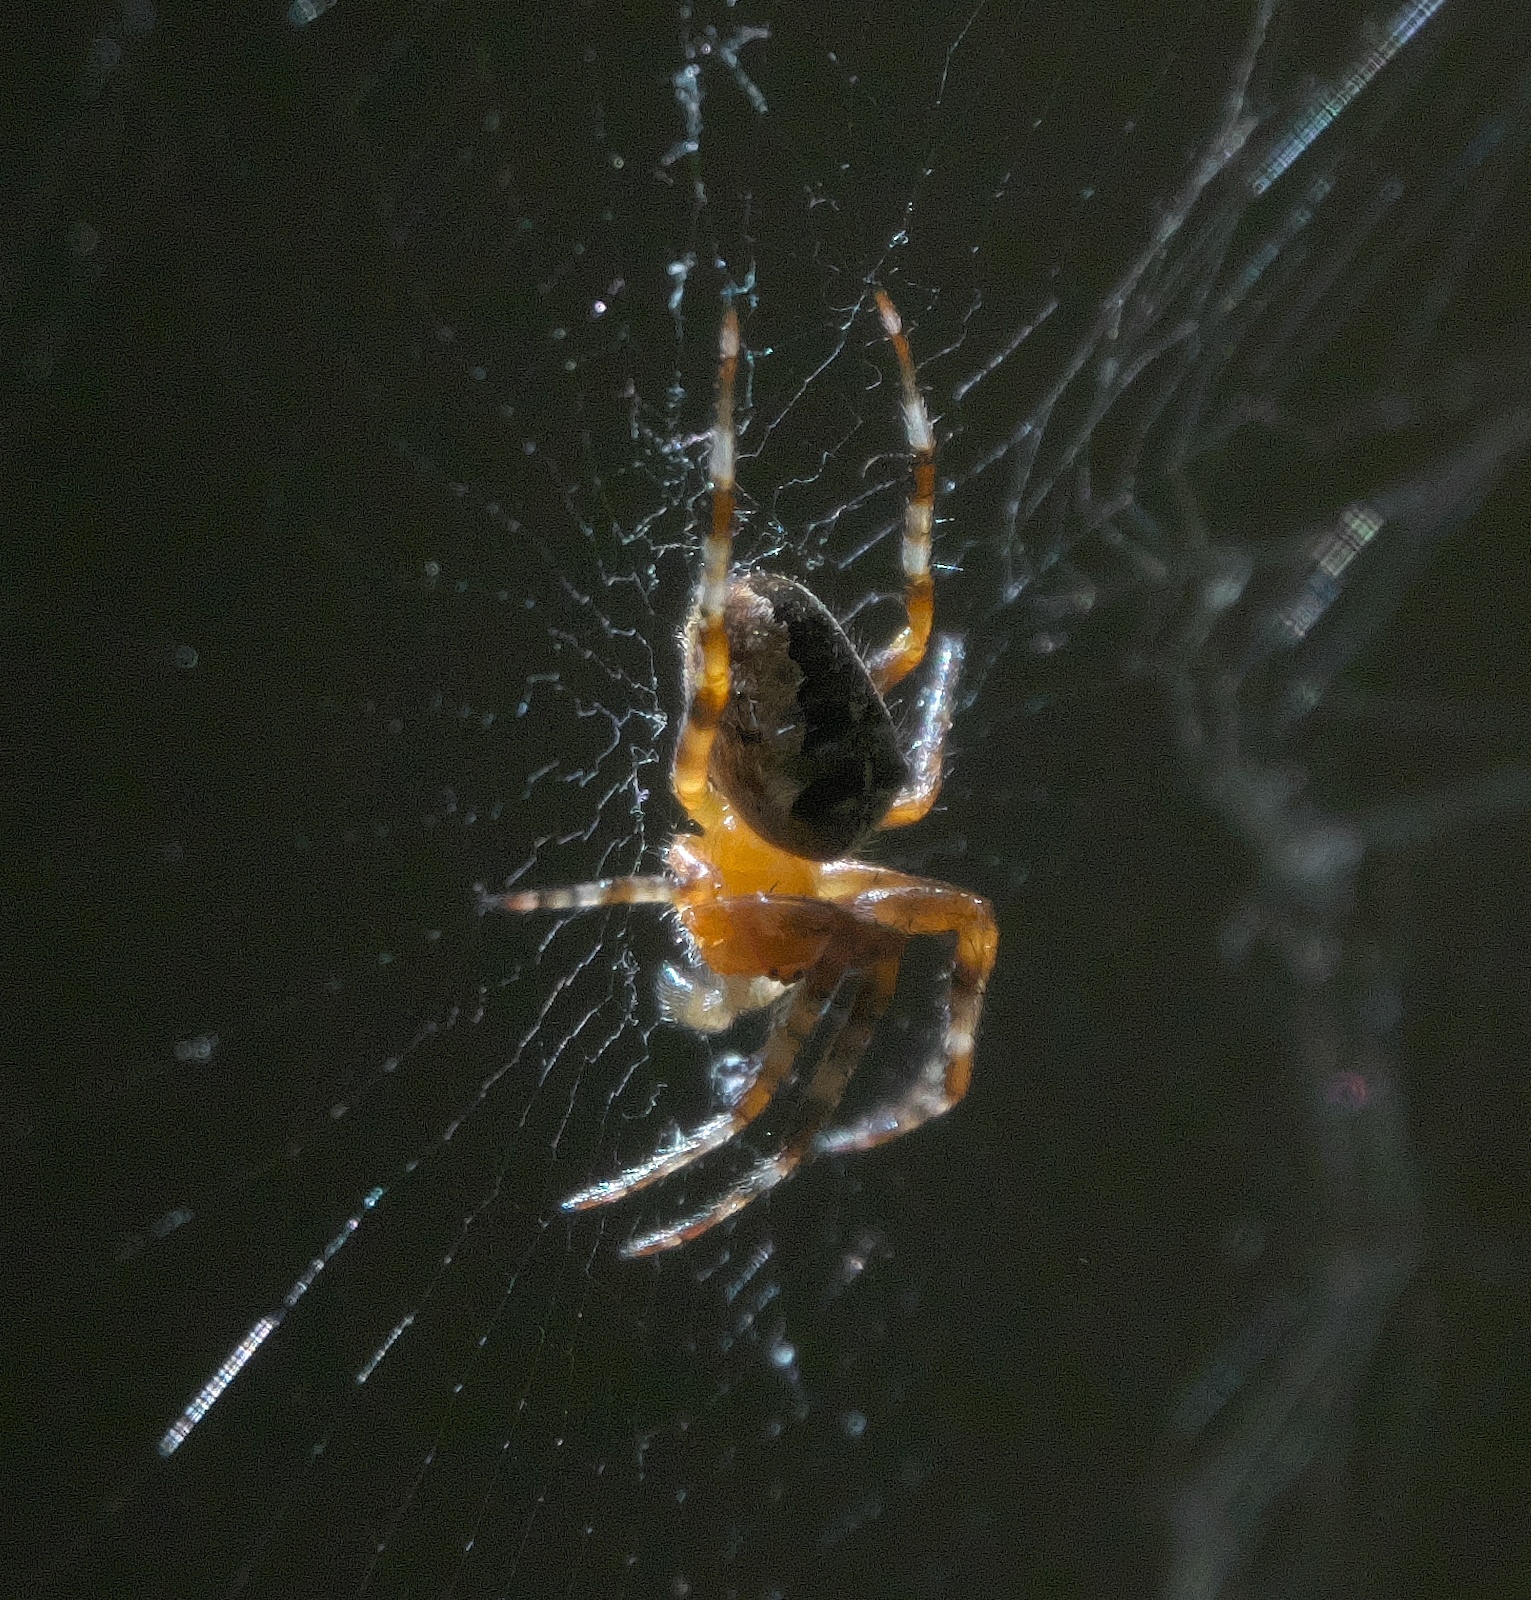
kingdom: Animalia
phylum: Arthropoda
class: Arachnida
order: Araneae
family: Araneidae
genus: Araneus
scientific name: Araneus diadematus
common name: Cross orbweaver
